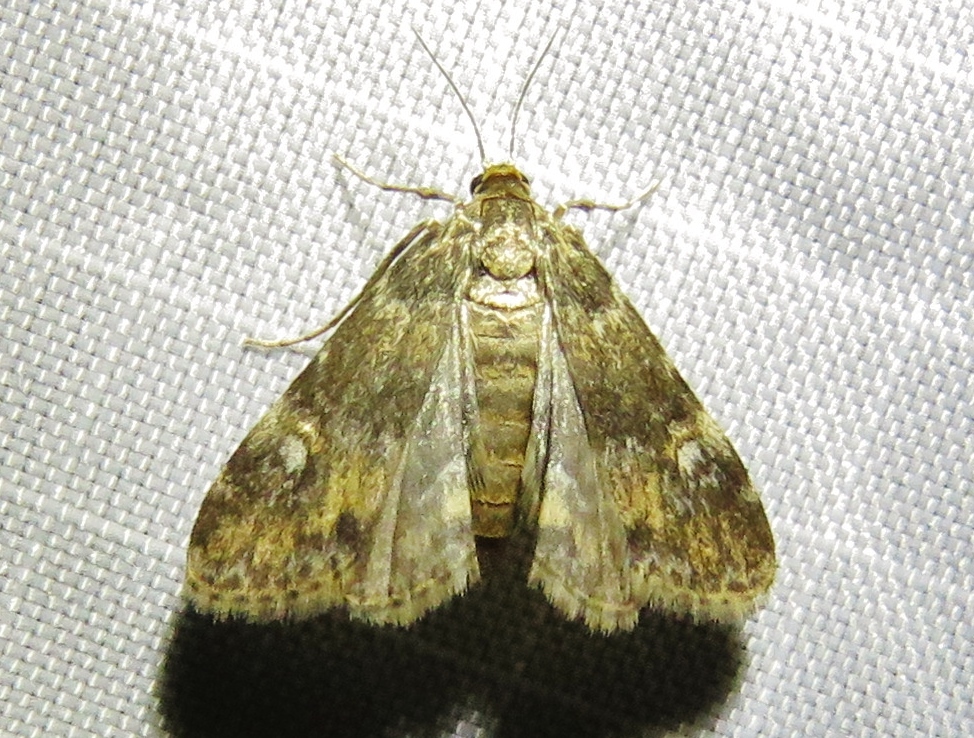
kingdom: Animalia
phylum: Arthropoda
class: Insecta
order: Lepidoptera
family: Crambidae
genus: Elophila
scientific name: Elophila obliteralis
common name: Waterlily leafcutter moth
